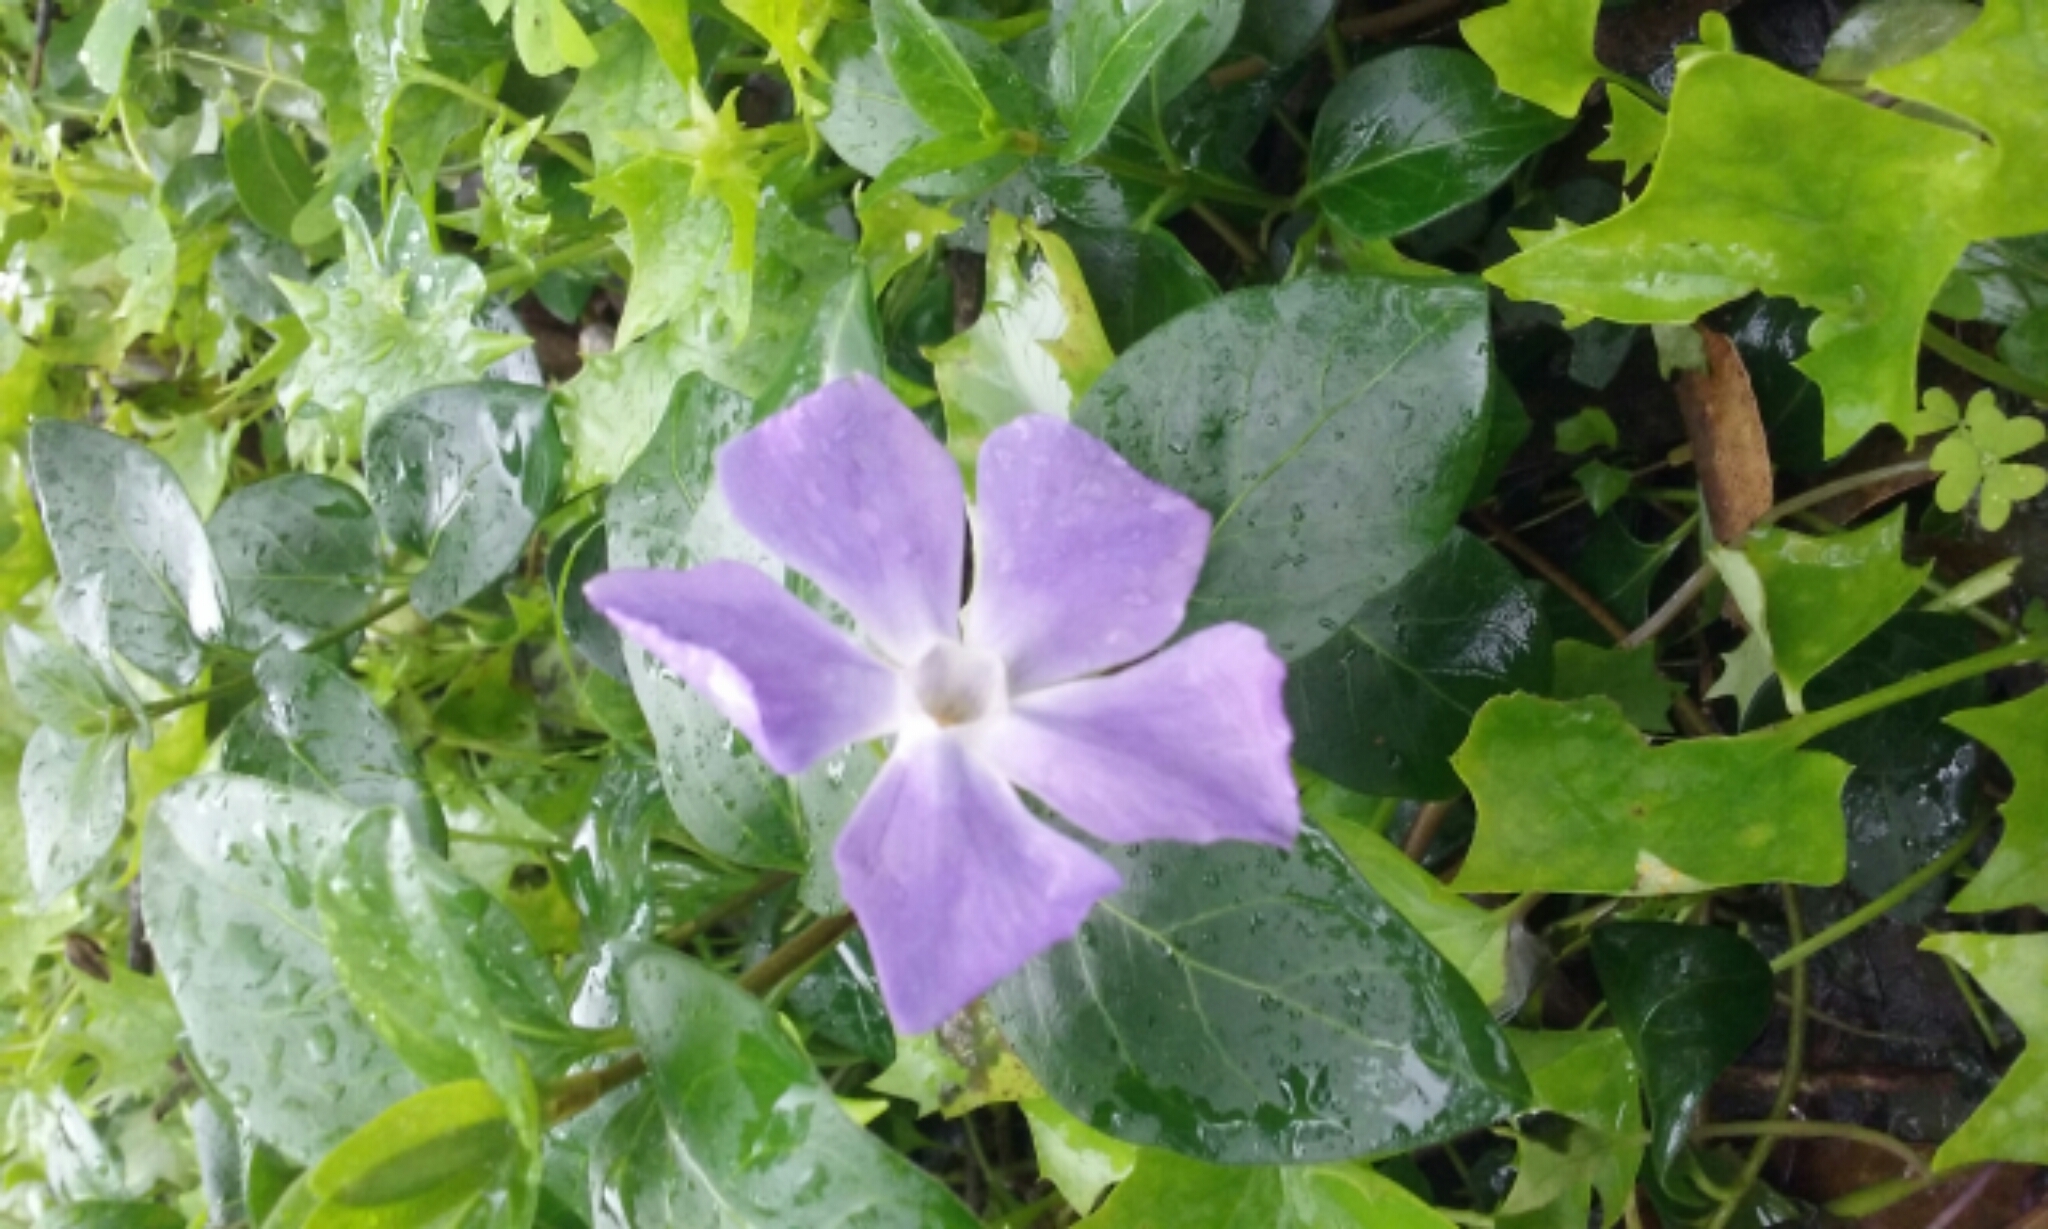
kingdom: Plantae
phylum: Tracheophyta
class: Magnoliopsida
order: Gentianales
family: Apocynaceae
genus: Vinca
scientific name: Vinca major
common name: Greater periwinkle
